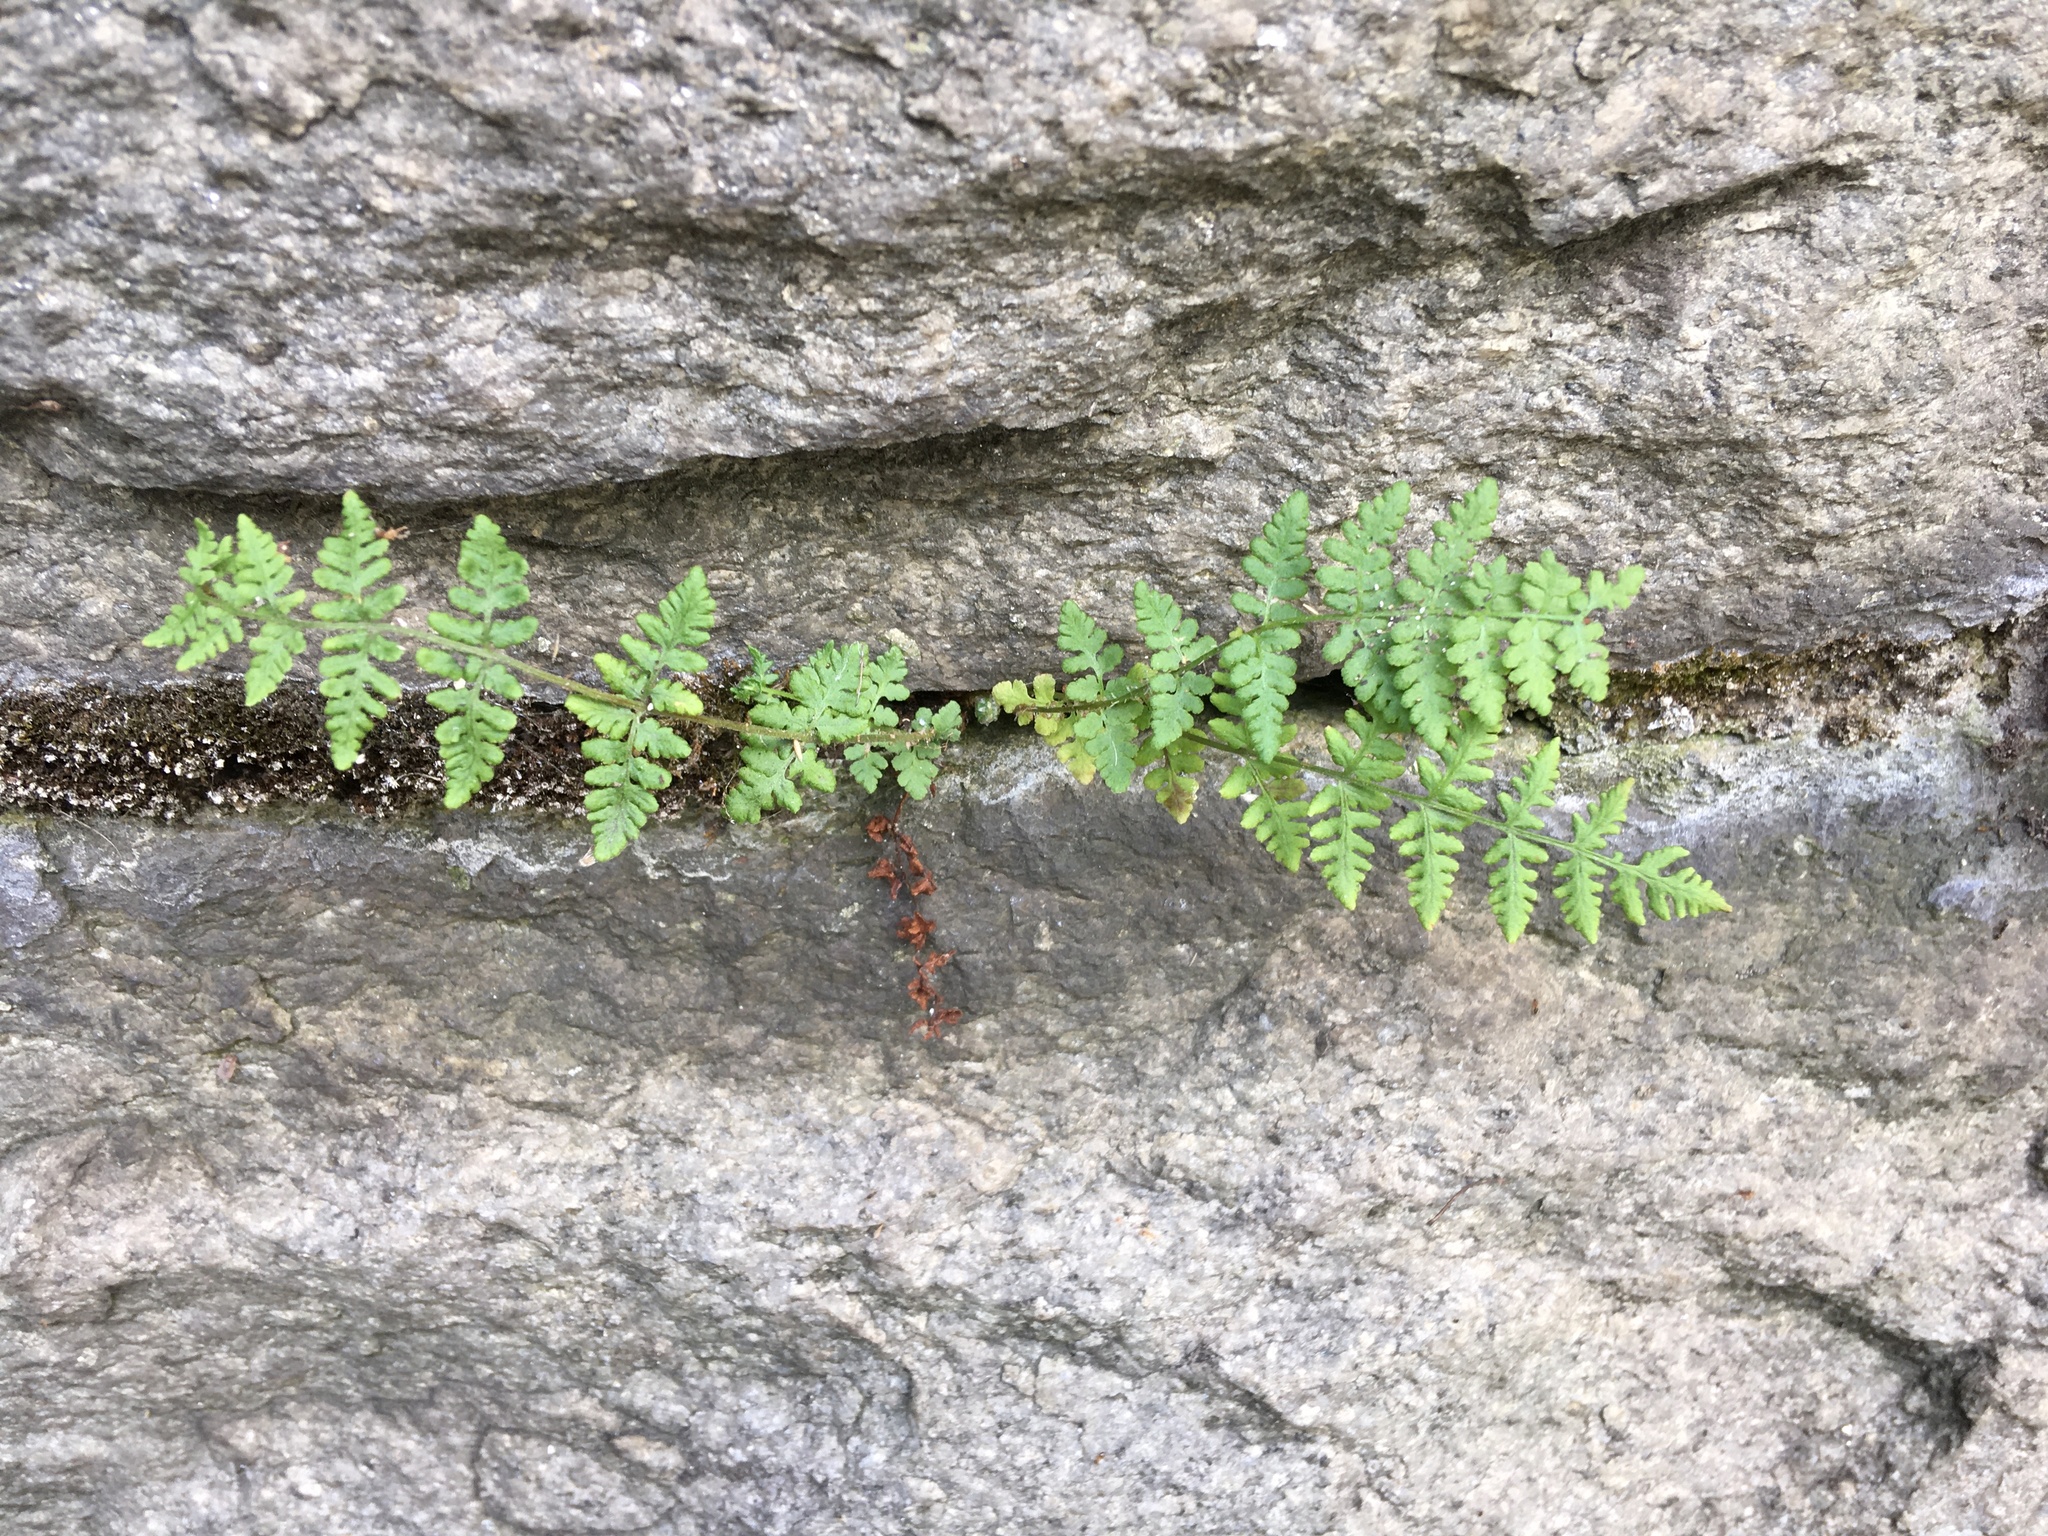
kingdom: Plantae
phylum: Tracheophyta
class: Polypodiopsida
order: Polypodiales
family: Woodsiaceae
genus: Physematium
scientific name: Physematium obtusum
